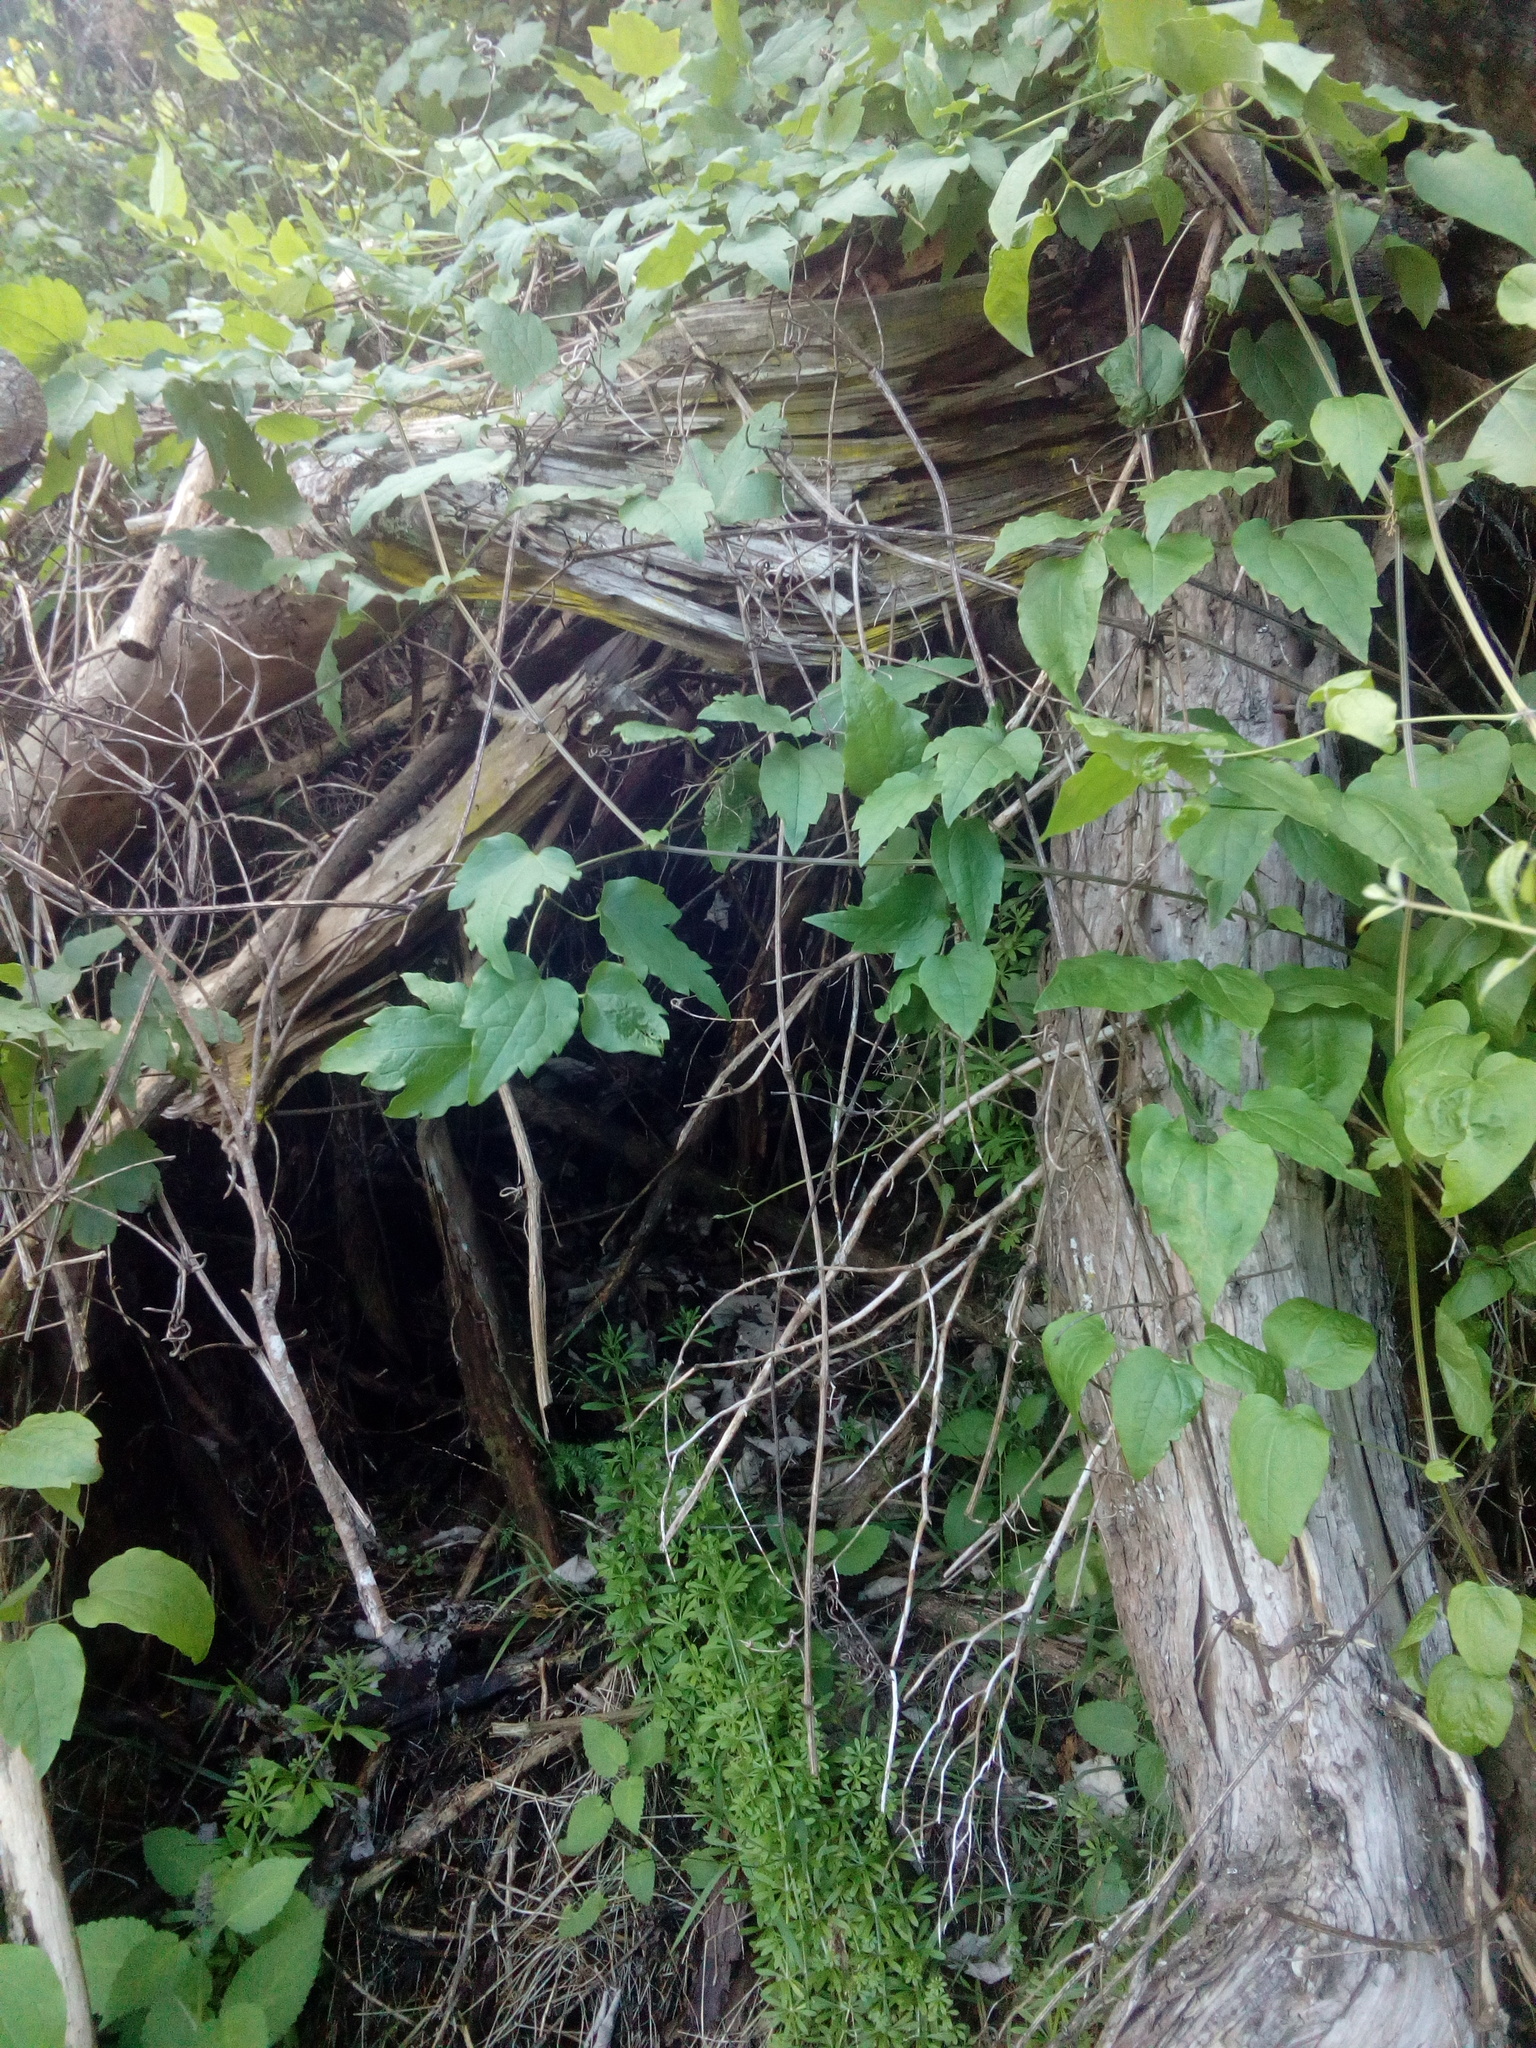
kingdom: Plantae
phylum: Tracheophyta
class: Magnoliopsida
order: Ranunculales
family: Ranunculaceae
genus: Clematis
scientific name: Clematis vitalba
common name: Evergreen clematis
